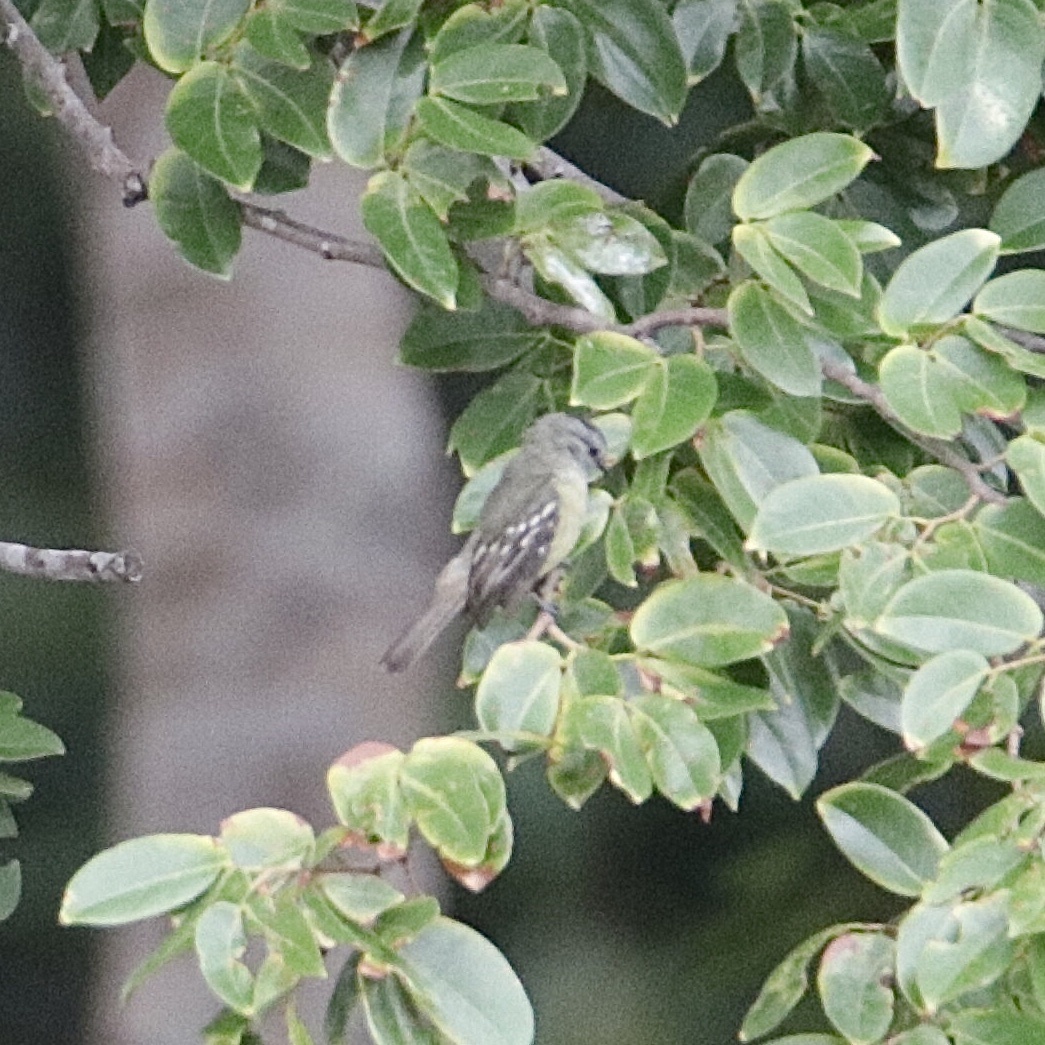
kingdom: Animalia
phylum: Chordata
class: Aves
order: Passeriformes
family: Tyrannidae
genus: Tyrannulus
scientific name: Tyrannulus elatus
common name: Yellow-crowned tyrannulet
